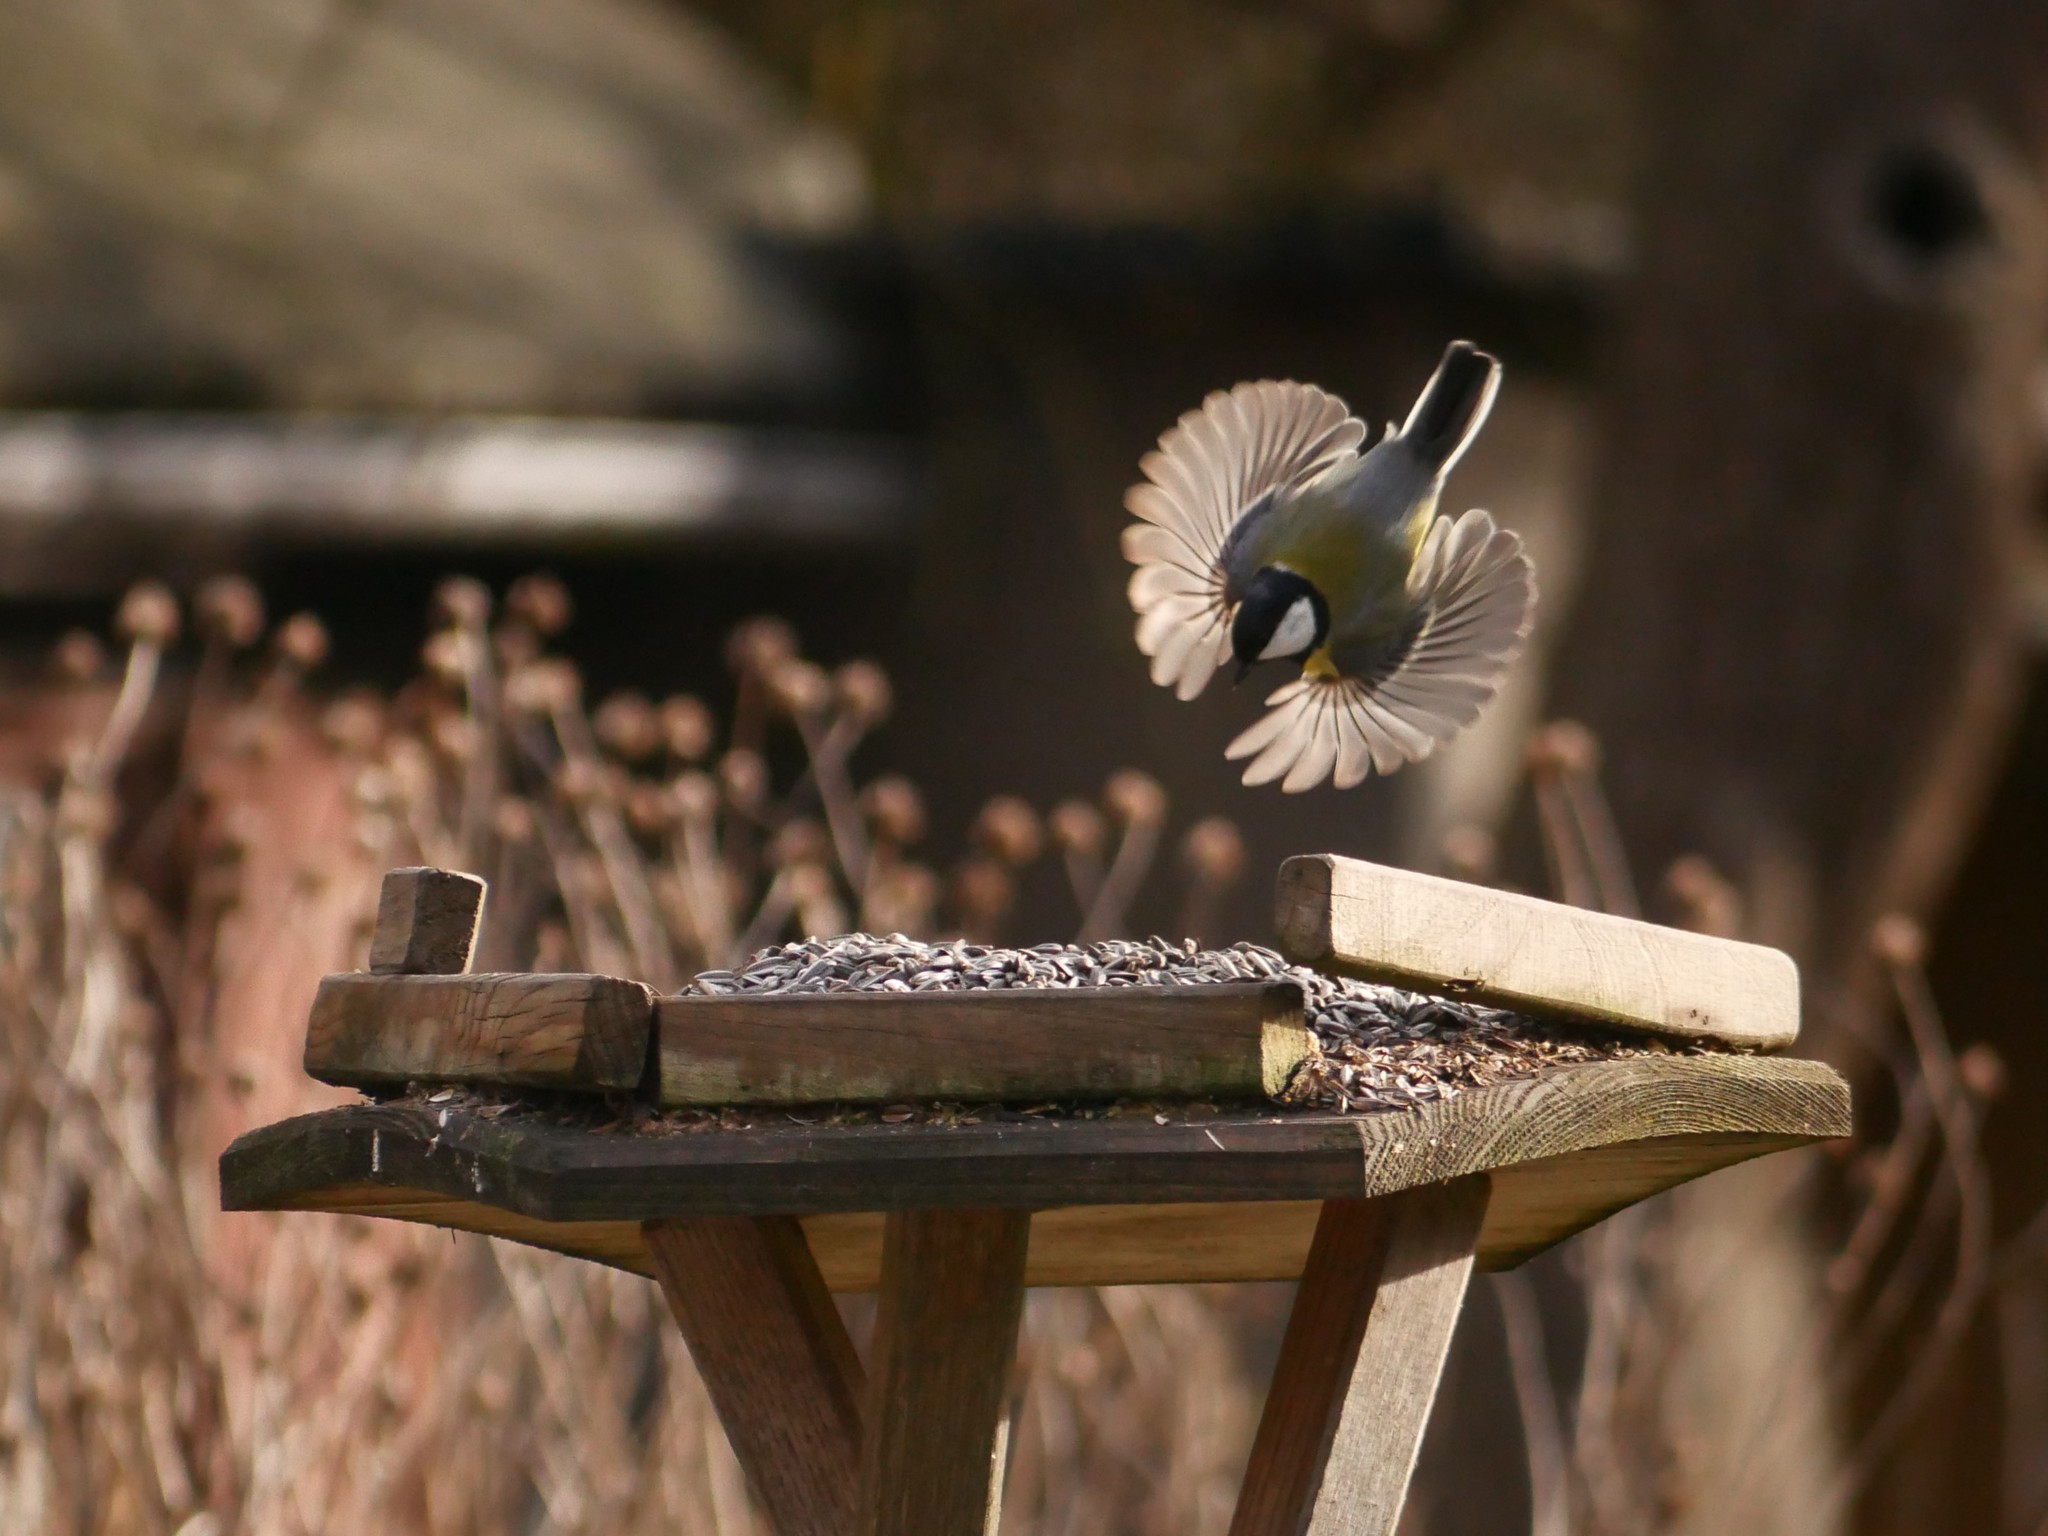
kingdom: Animalia
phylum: Chordata
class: Aves
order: Passeriformes
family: Paridae
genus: Parus
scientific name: Parus major
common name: Great tit
